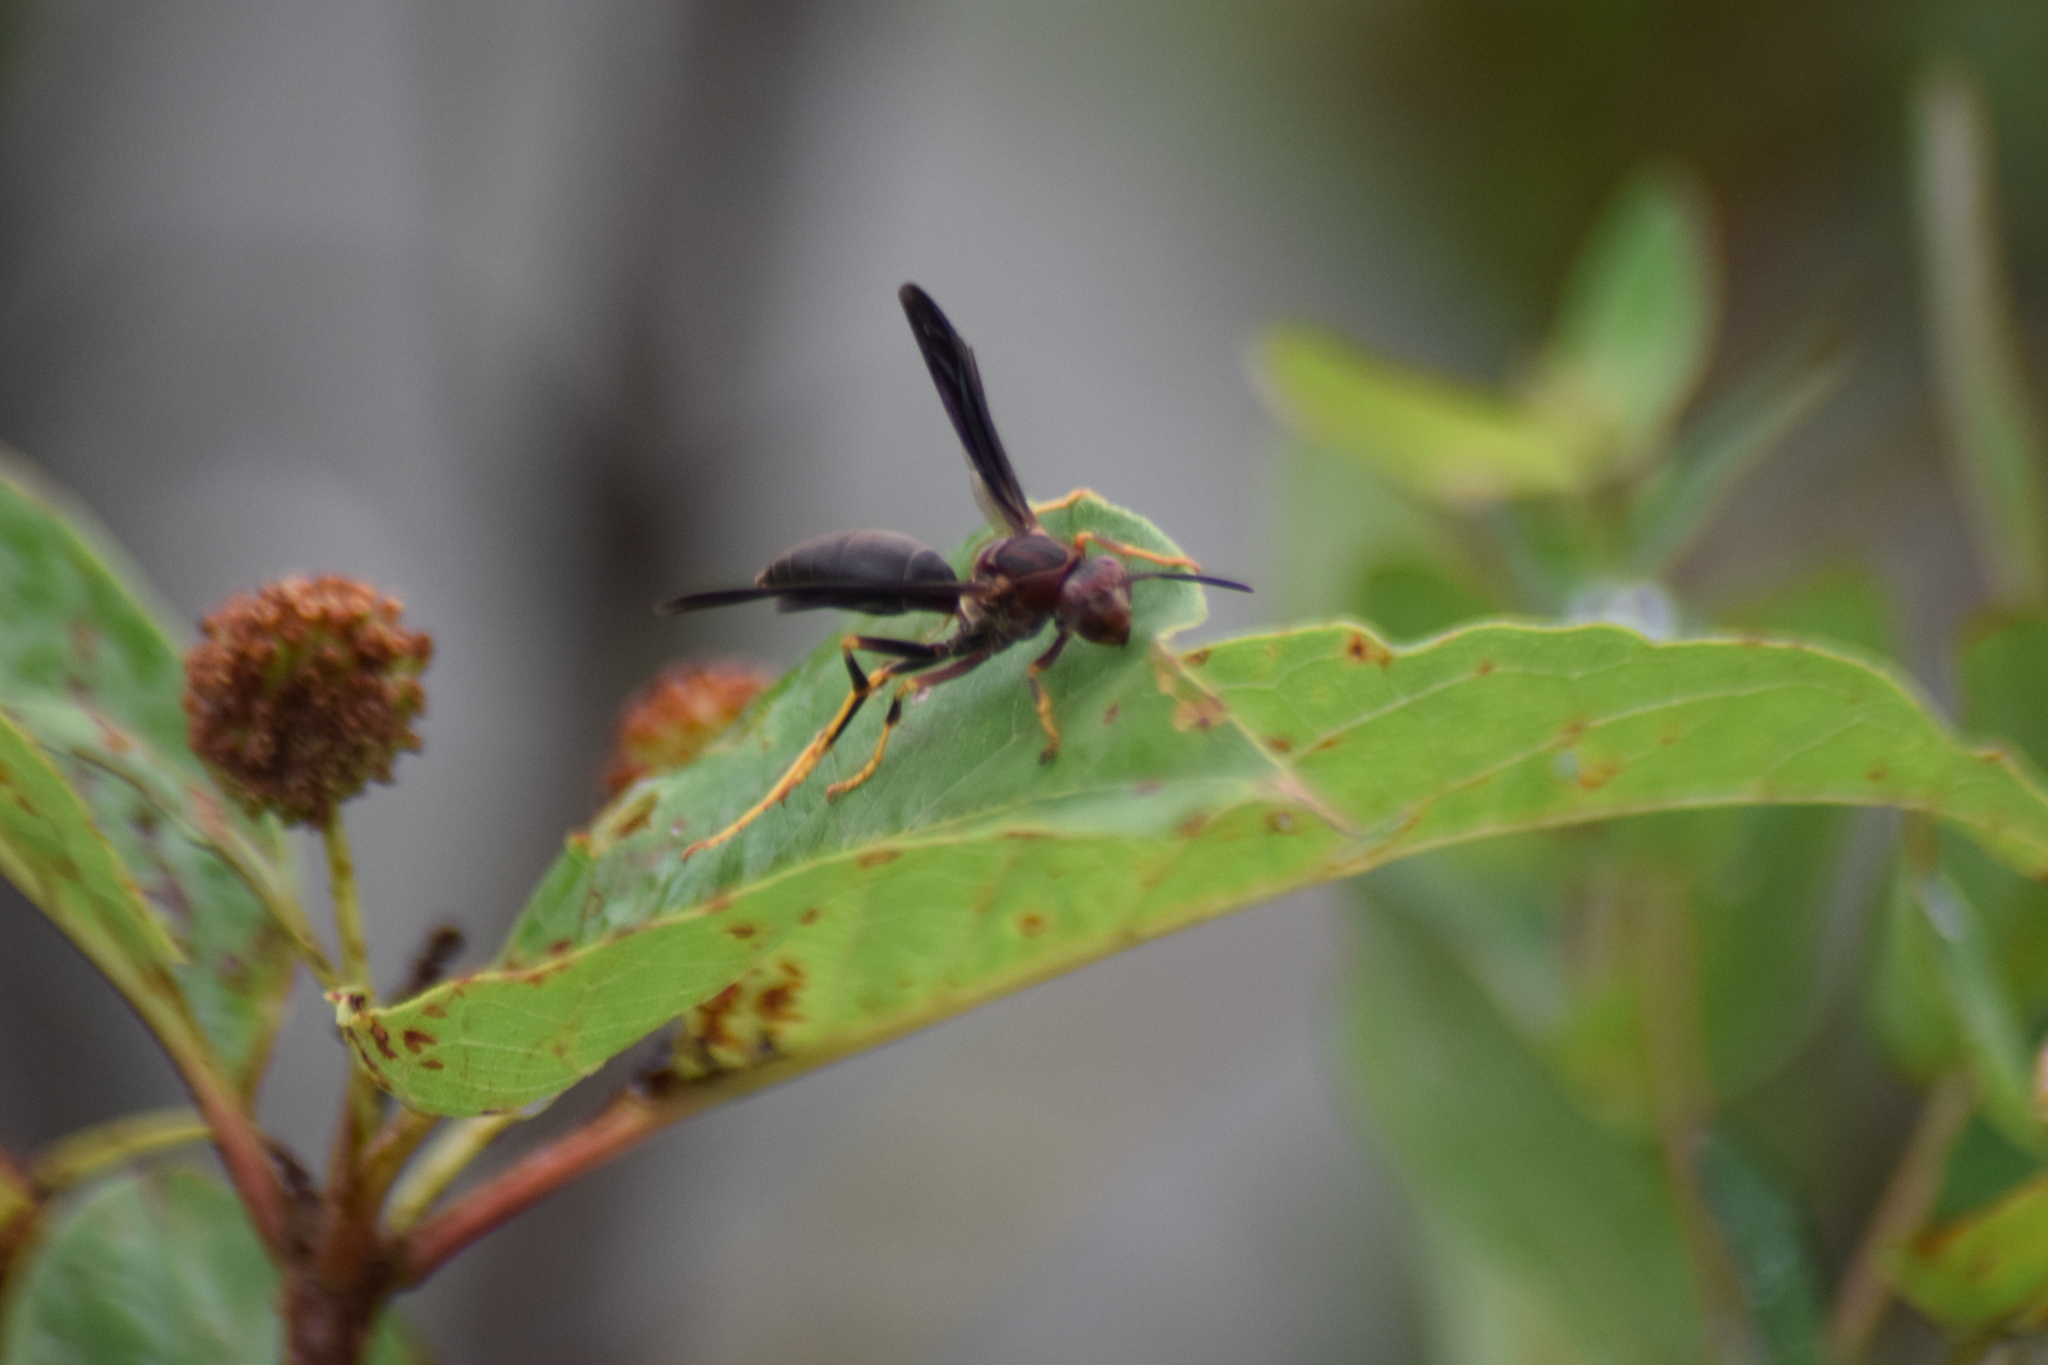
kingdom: Animalia
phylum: Arthropoda
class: Insecta
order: Hymenoptera
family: Eumenidae
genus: Polistes
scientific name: Polistes metricus
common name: Metric paper wasp
